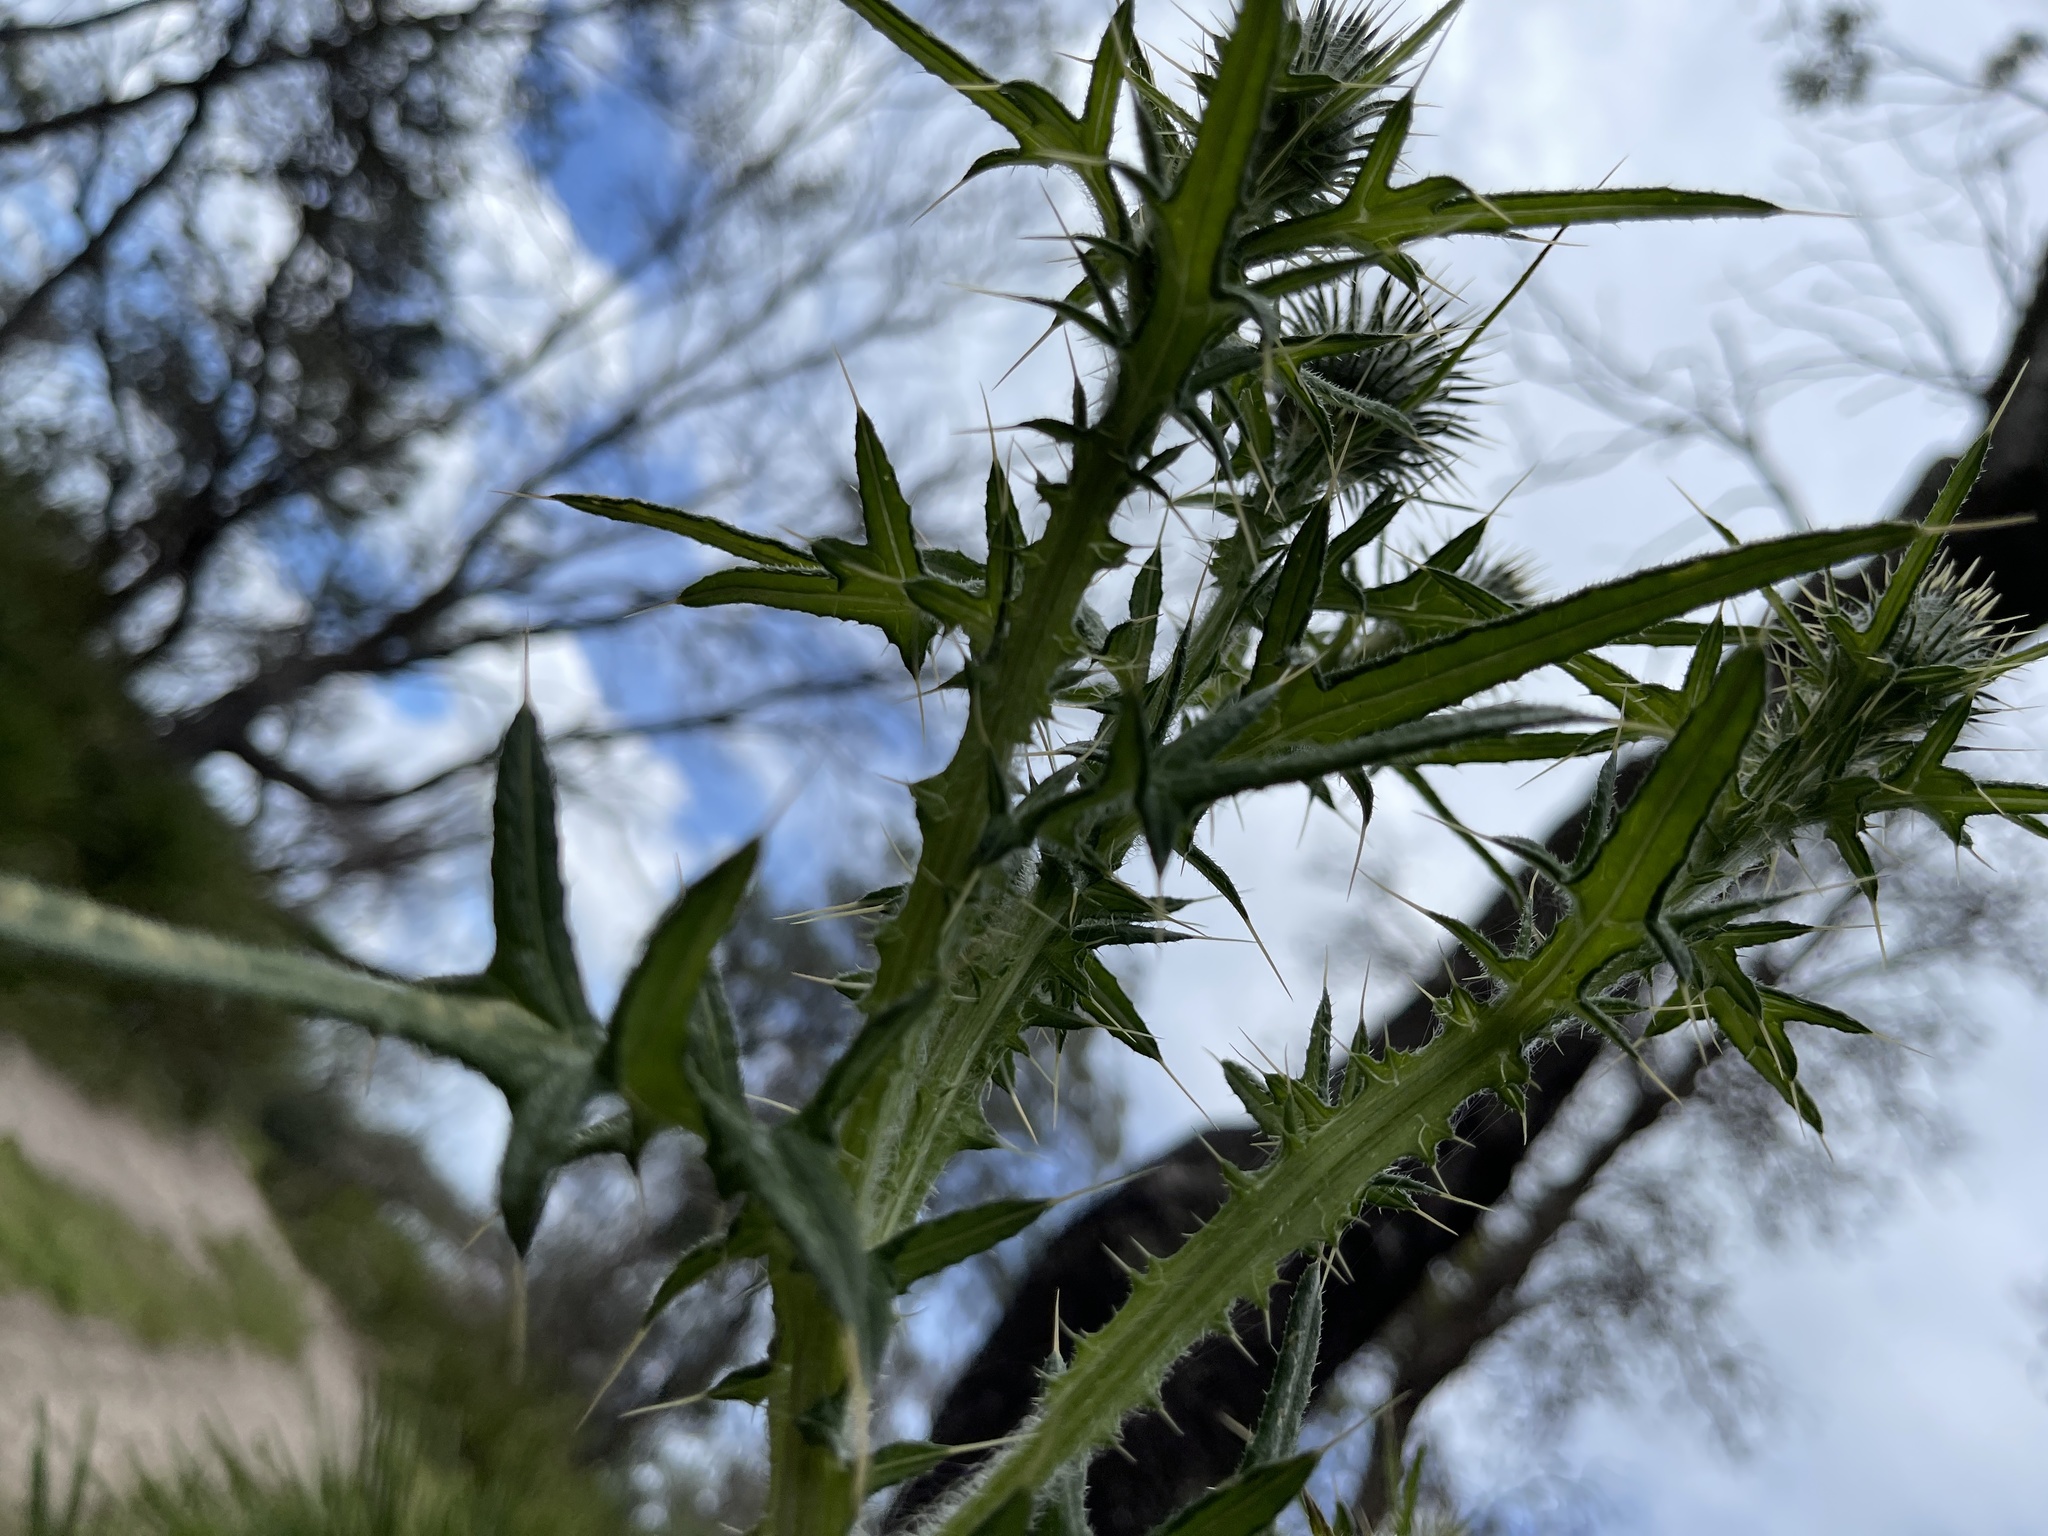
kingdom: Plantae
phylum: Tracheophyta
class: Magnoliopsida
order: Asterales
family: Asteraceae
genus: Cirsium
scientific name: Cirsium vulgare
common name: Bull thistle
